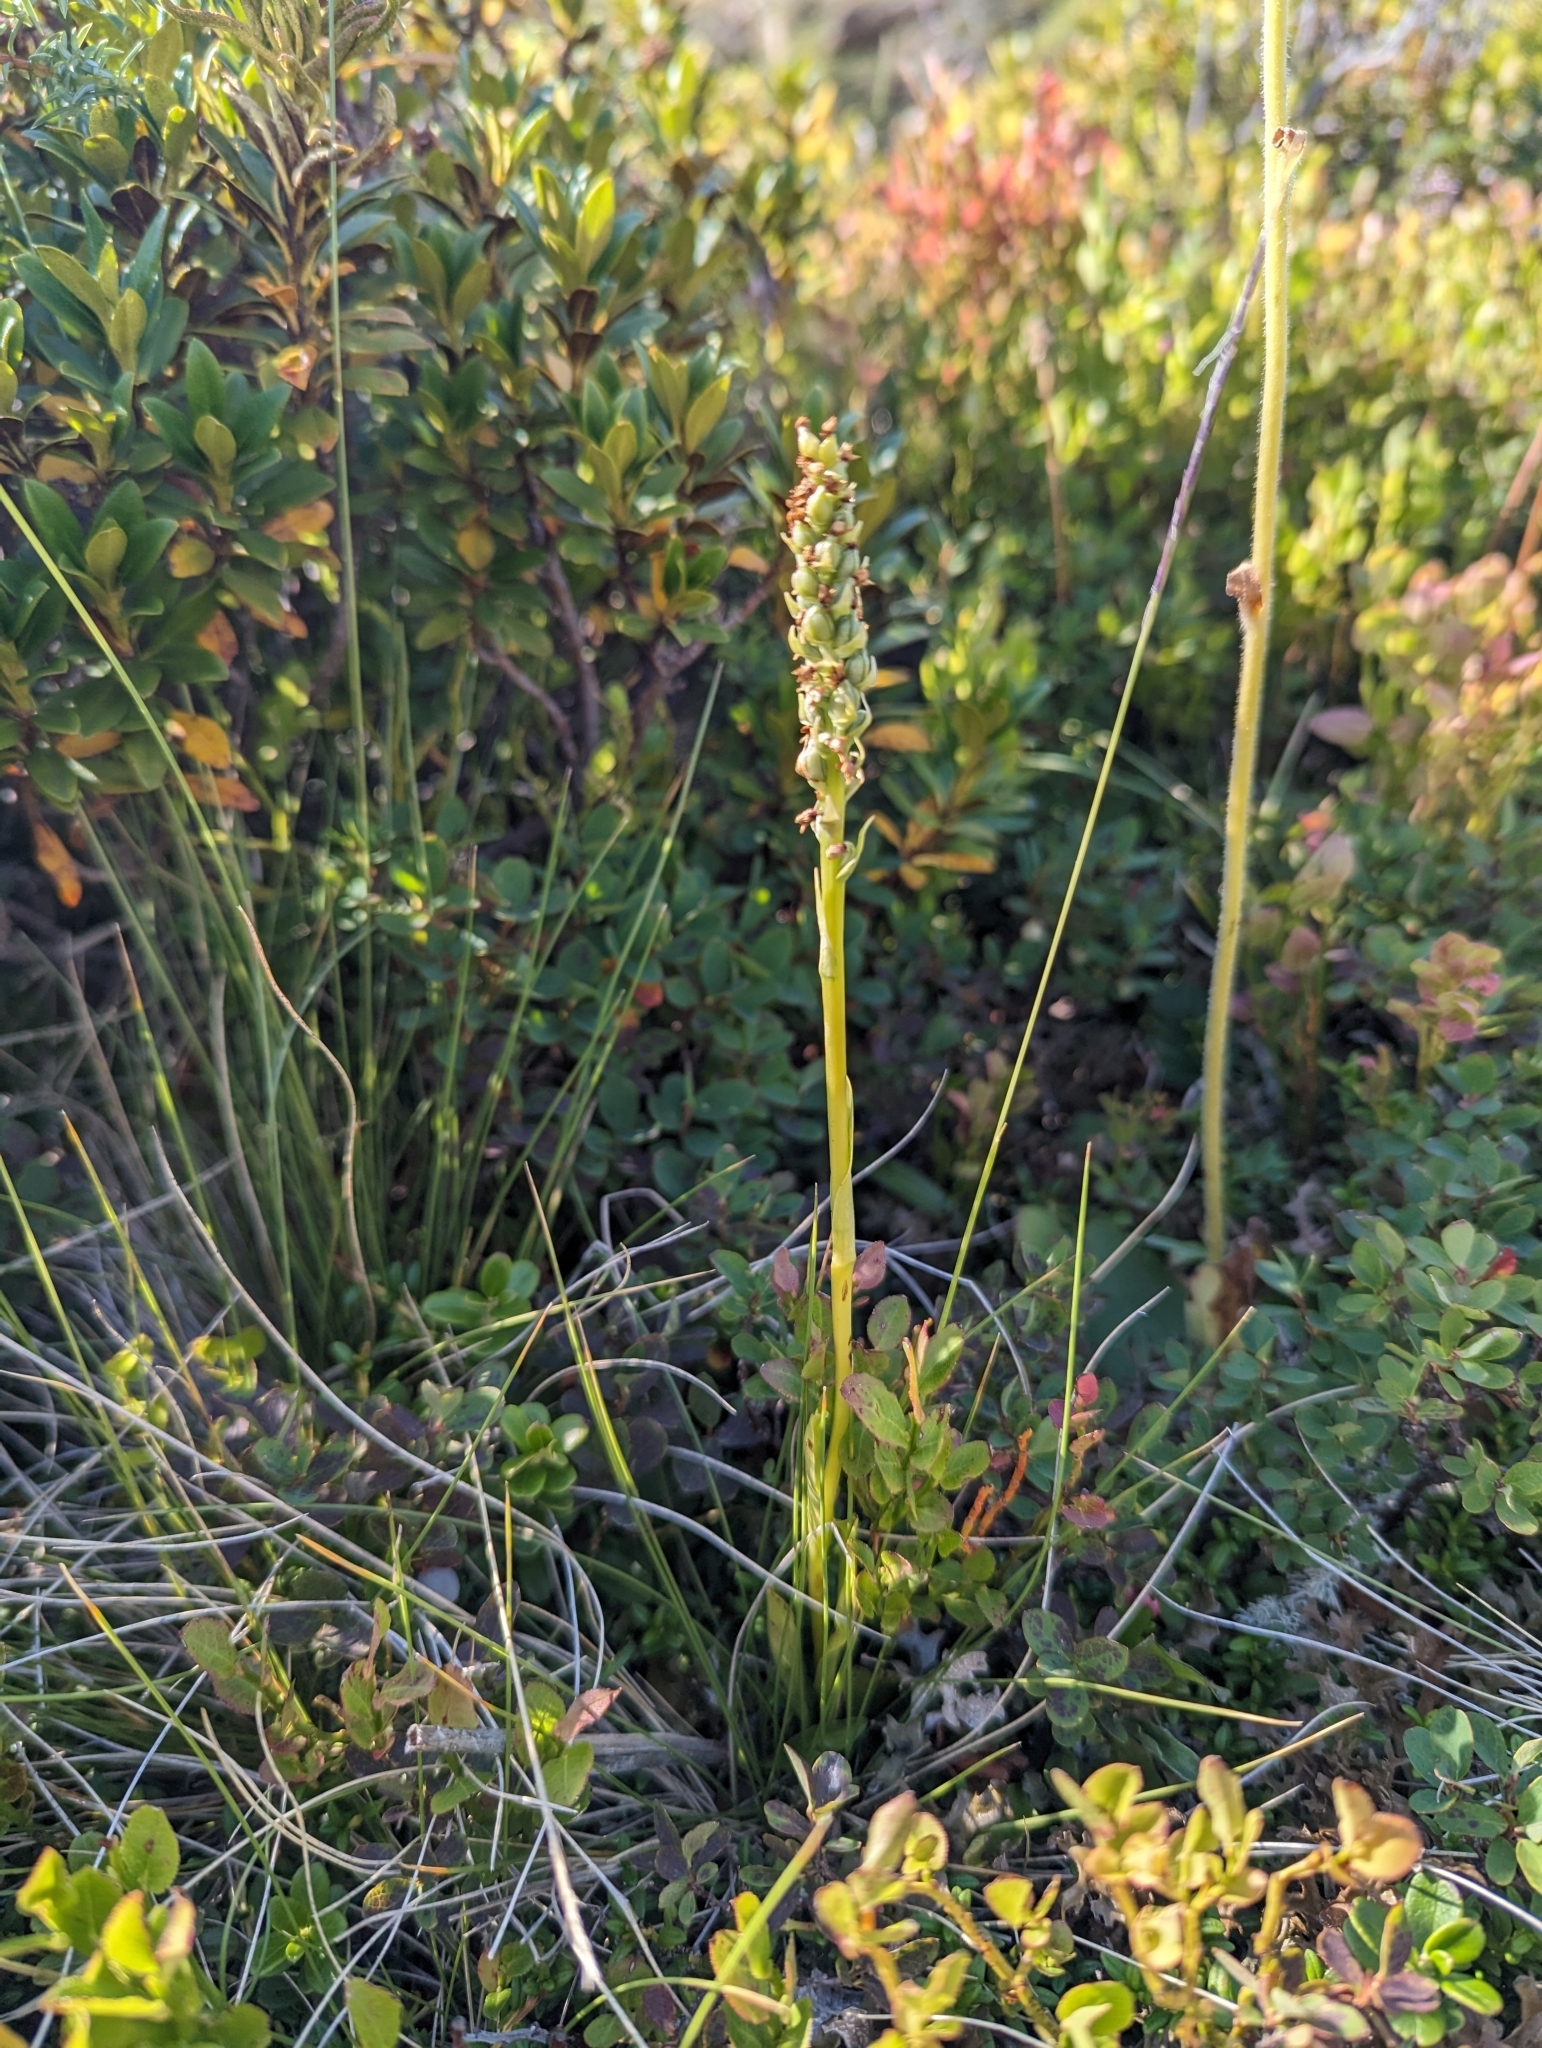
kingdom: Plantae
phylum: Tracheophyta
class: Liliopsida
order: Asparagales
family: Orchidaceae
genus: Pseudorchis
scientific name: Pseudorchis albida
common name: Small-white orchid
